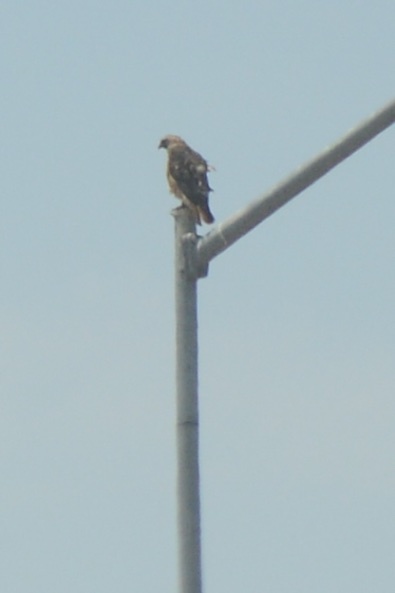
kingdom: Animalia
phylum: Chordata
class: Aves
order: Accipitriformes
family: Accipitridae
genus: Buteo
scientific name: Buteo jamaicensis
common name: Red-tailed hawk
